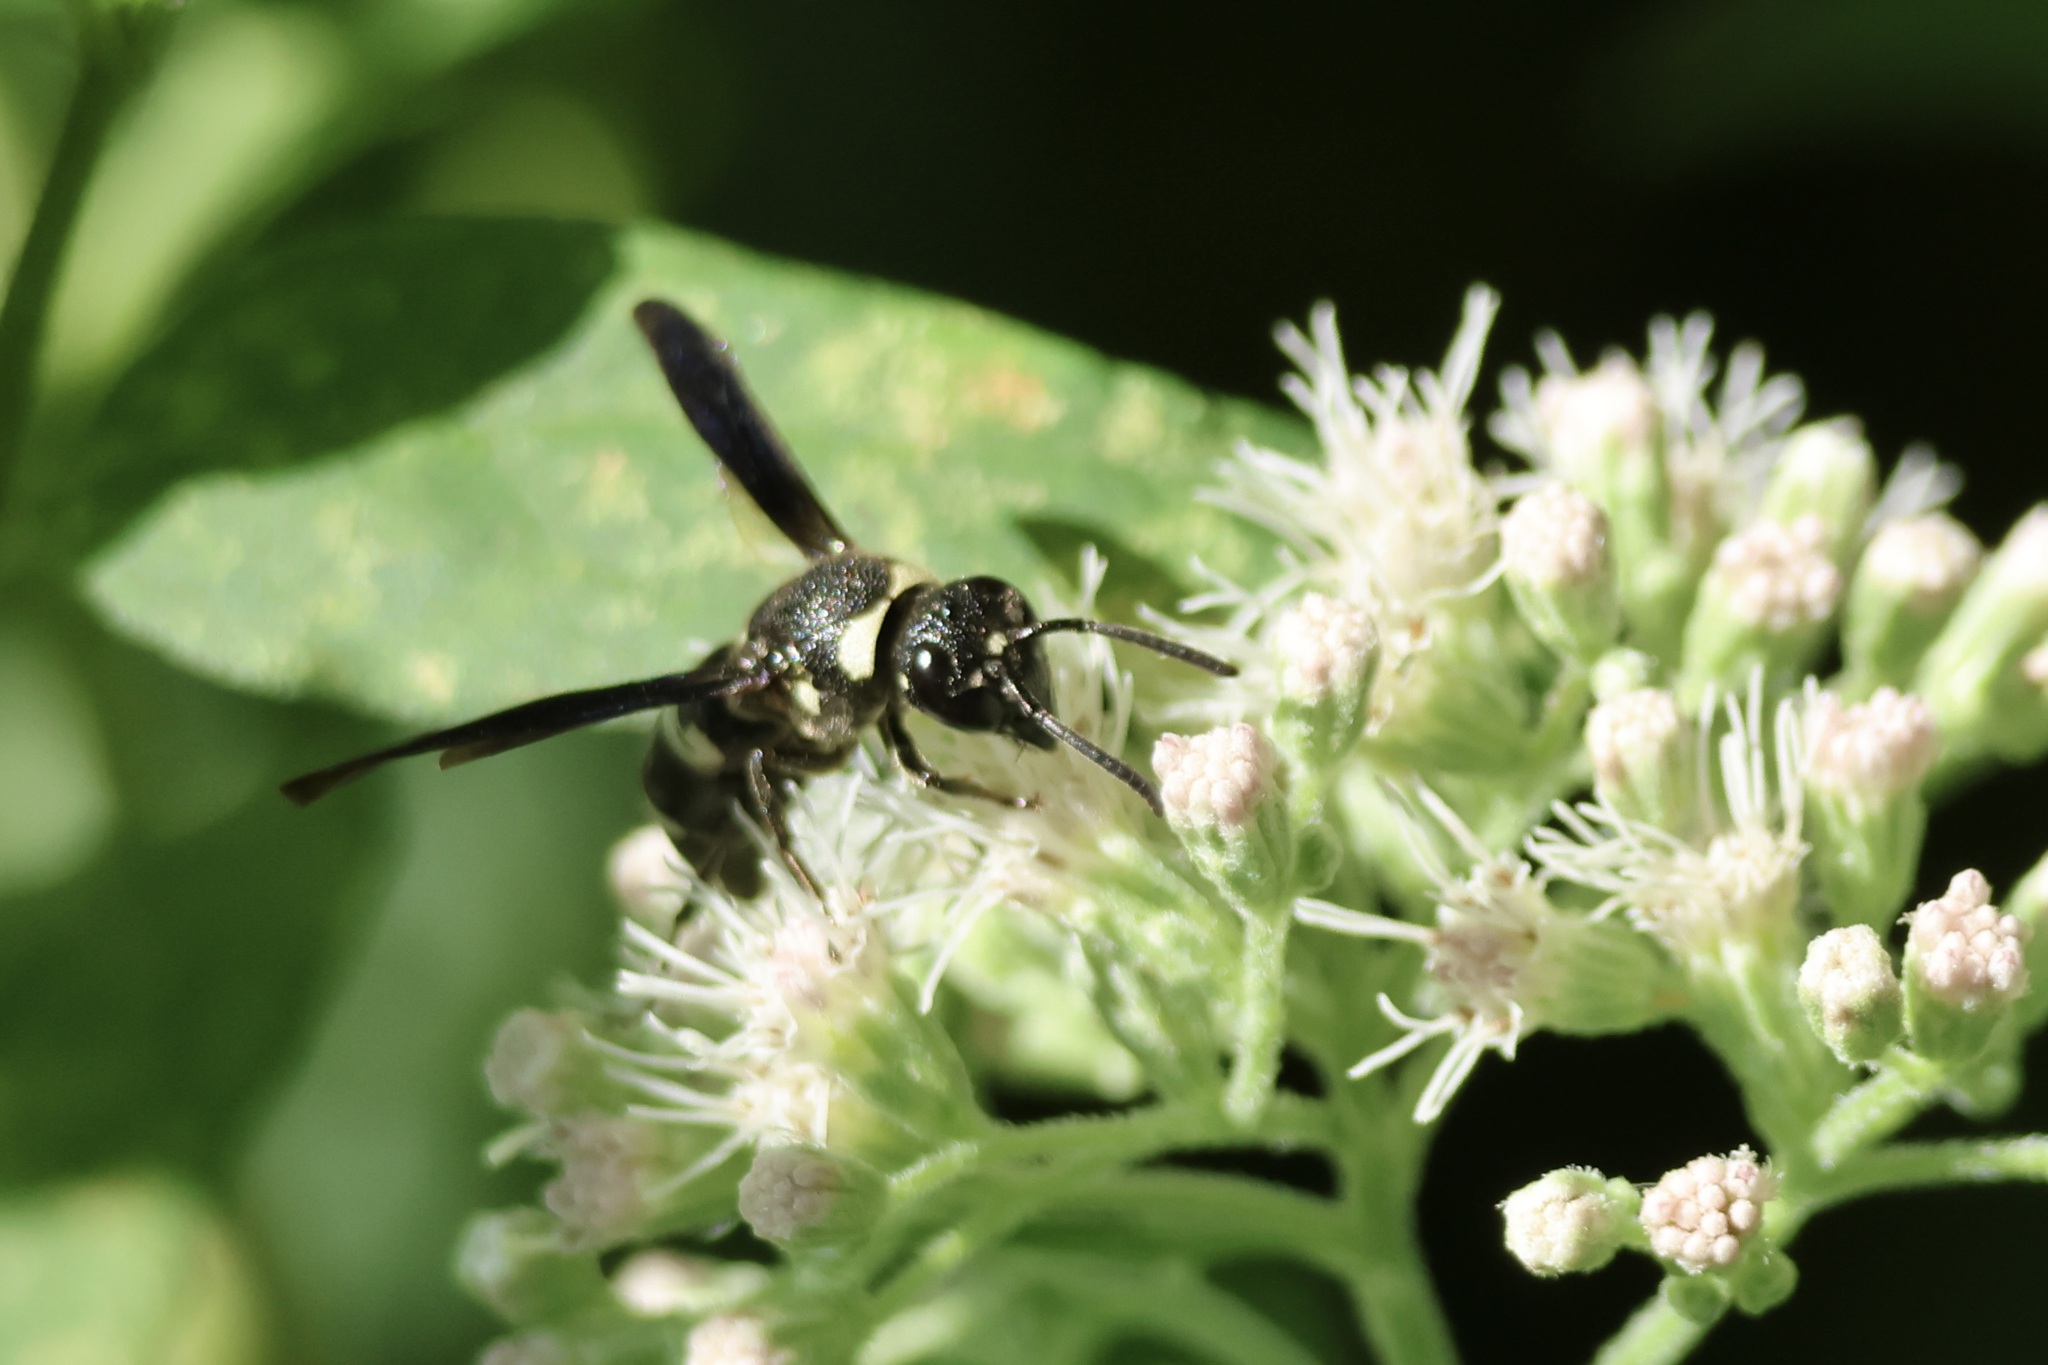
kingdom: Animalia
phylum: Arthropoda
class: Insecta
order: Hymenoptera
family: Eumenidae
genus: Euodynerus
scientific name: Euodynerus megaera
